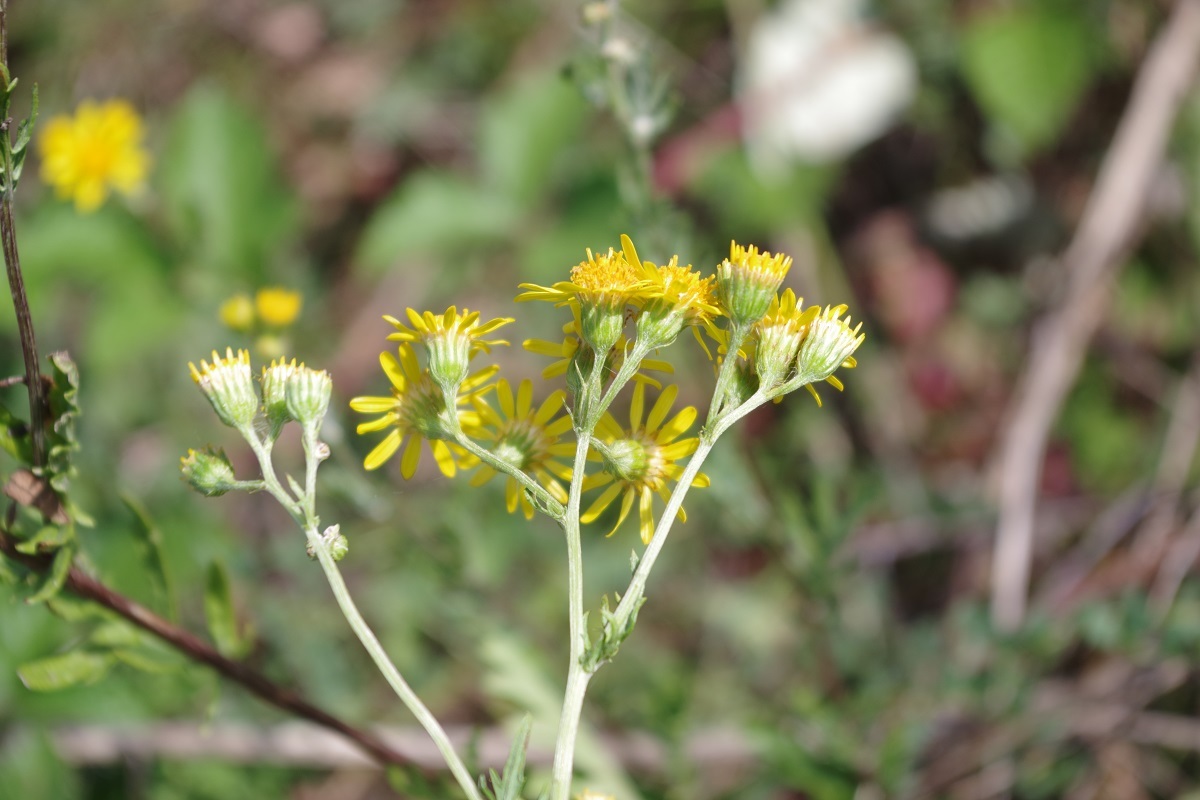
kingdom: Plantae
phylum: Tracheophyta
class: Magnoliopsida
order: Asterales
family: Asteraceae
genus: Jacobaea
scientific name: Jacobaea erucifolia
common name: Hoary ragwort
